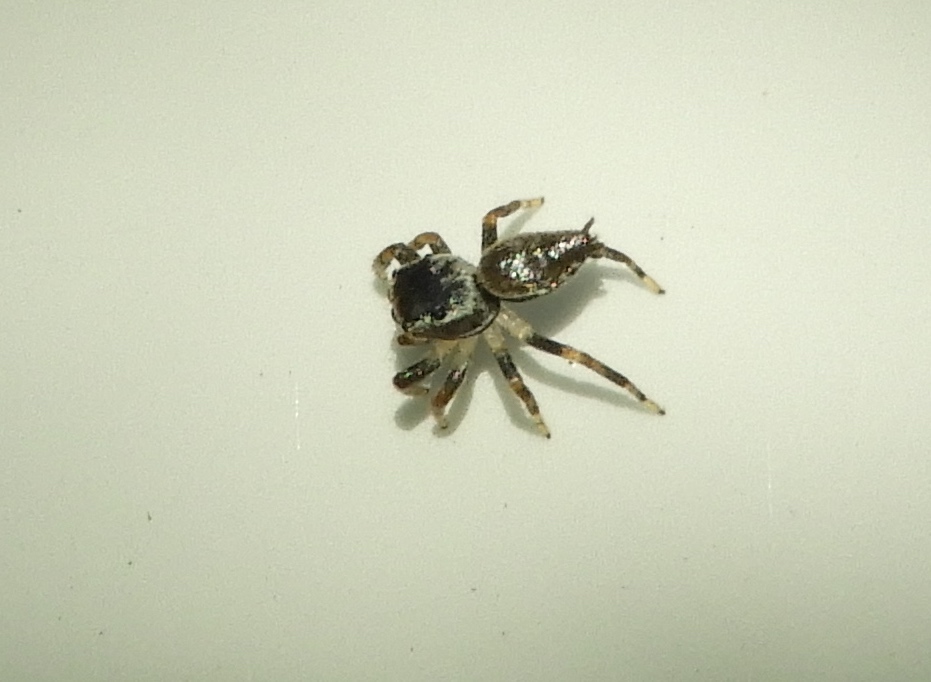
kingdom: Animalia
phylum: Arthropoda
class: Arachnida
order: Araneae
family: Salticidae
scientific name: Salticidae
